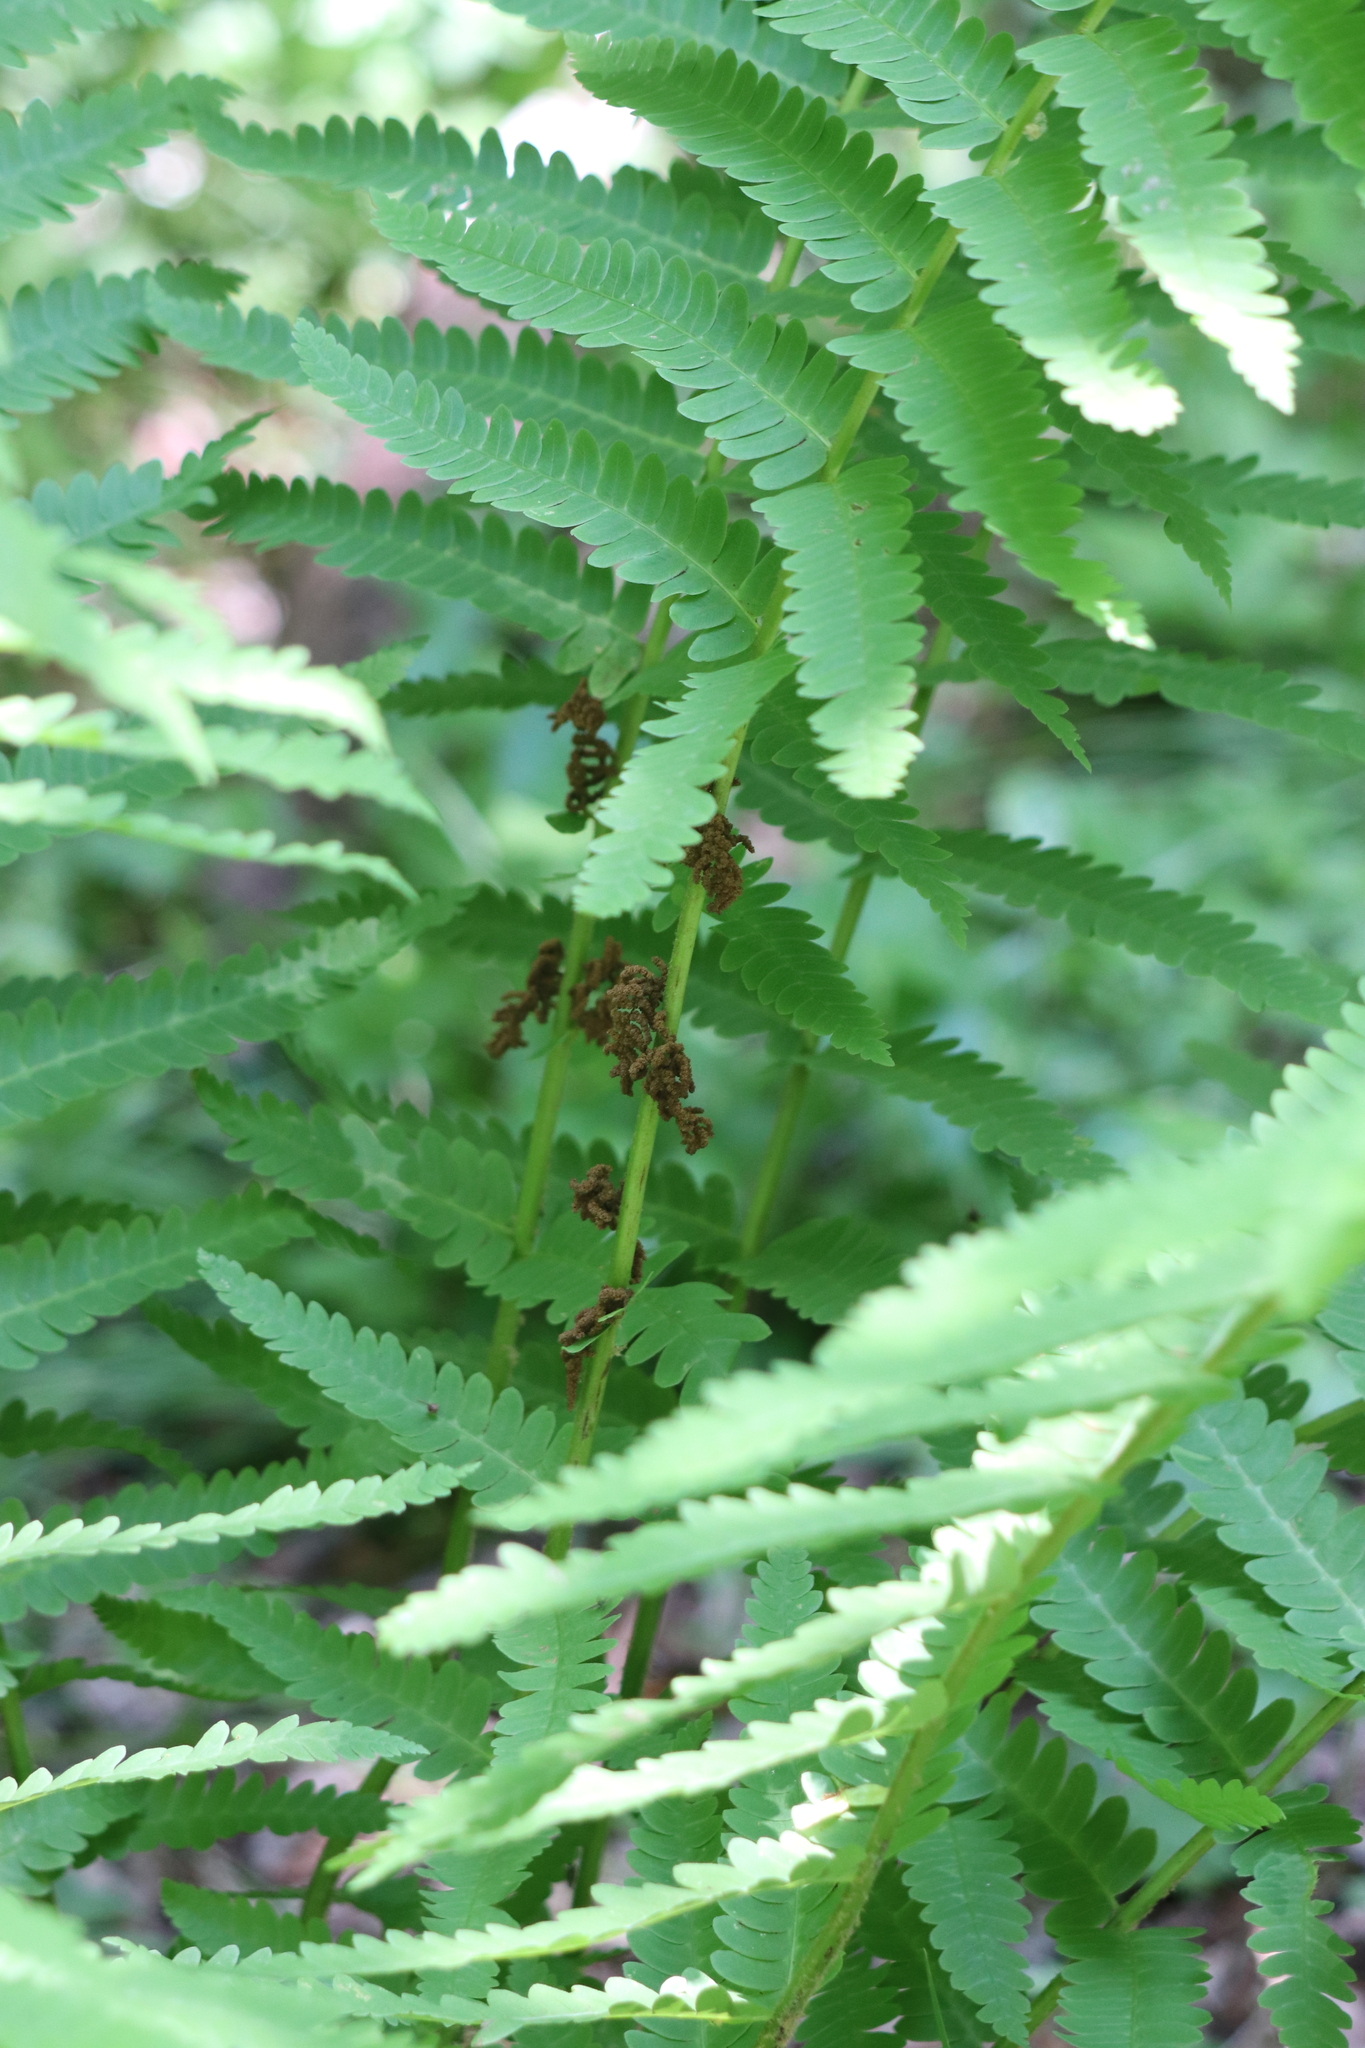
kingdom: Plantae
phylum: Tracheophyta
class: Polypodiopsida
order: Osmundales
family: Osmundaceae
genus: Claytosmunda
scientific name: Claytosmunda claytoniana
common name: Clayton's fern
